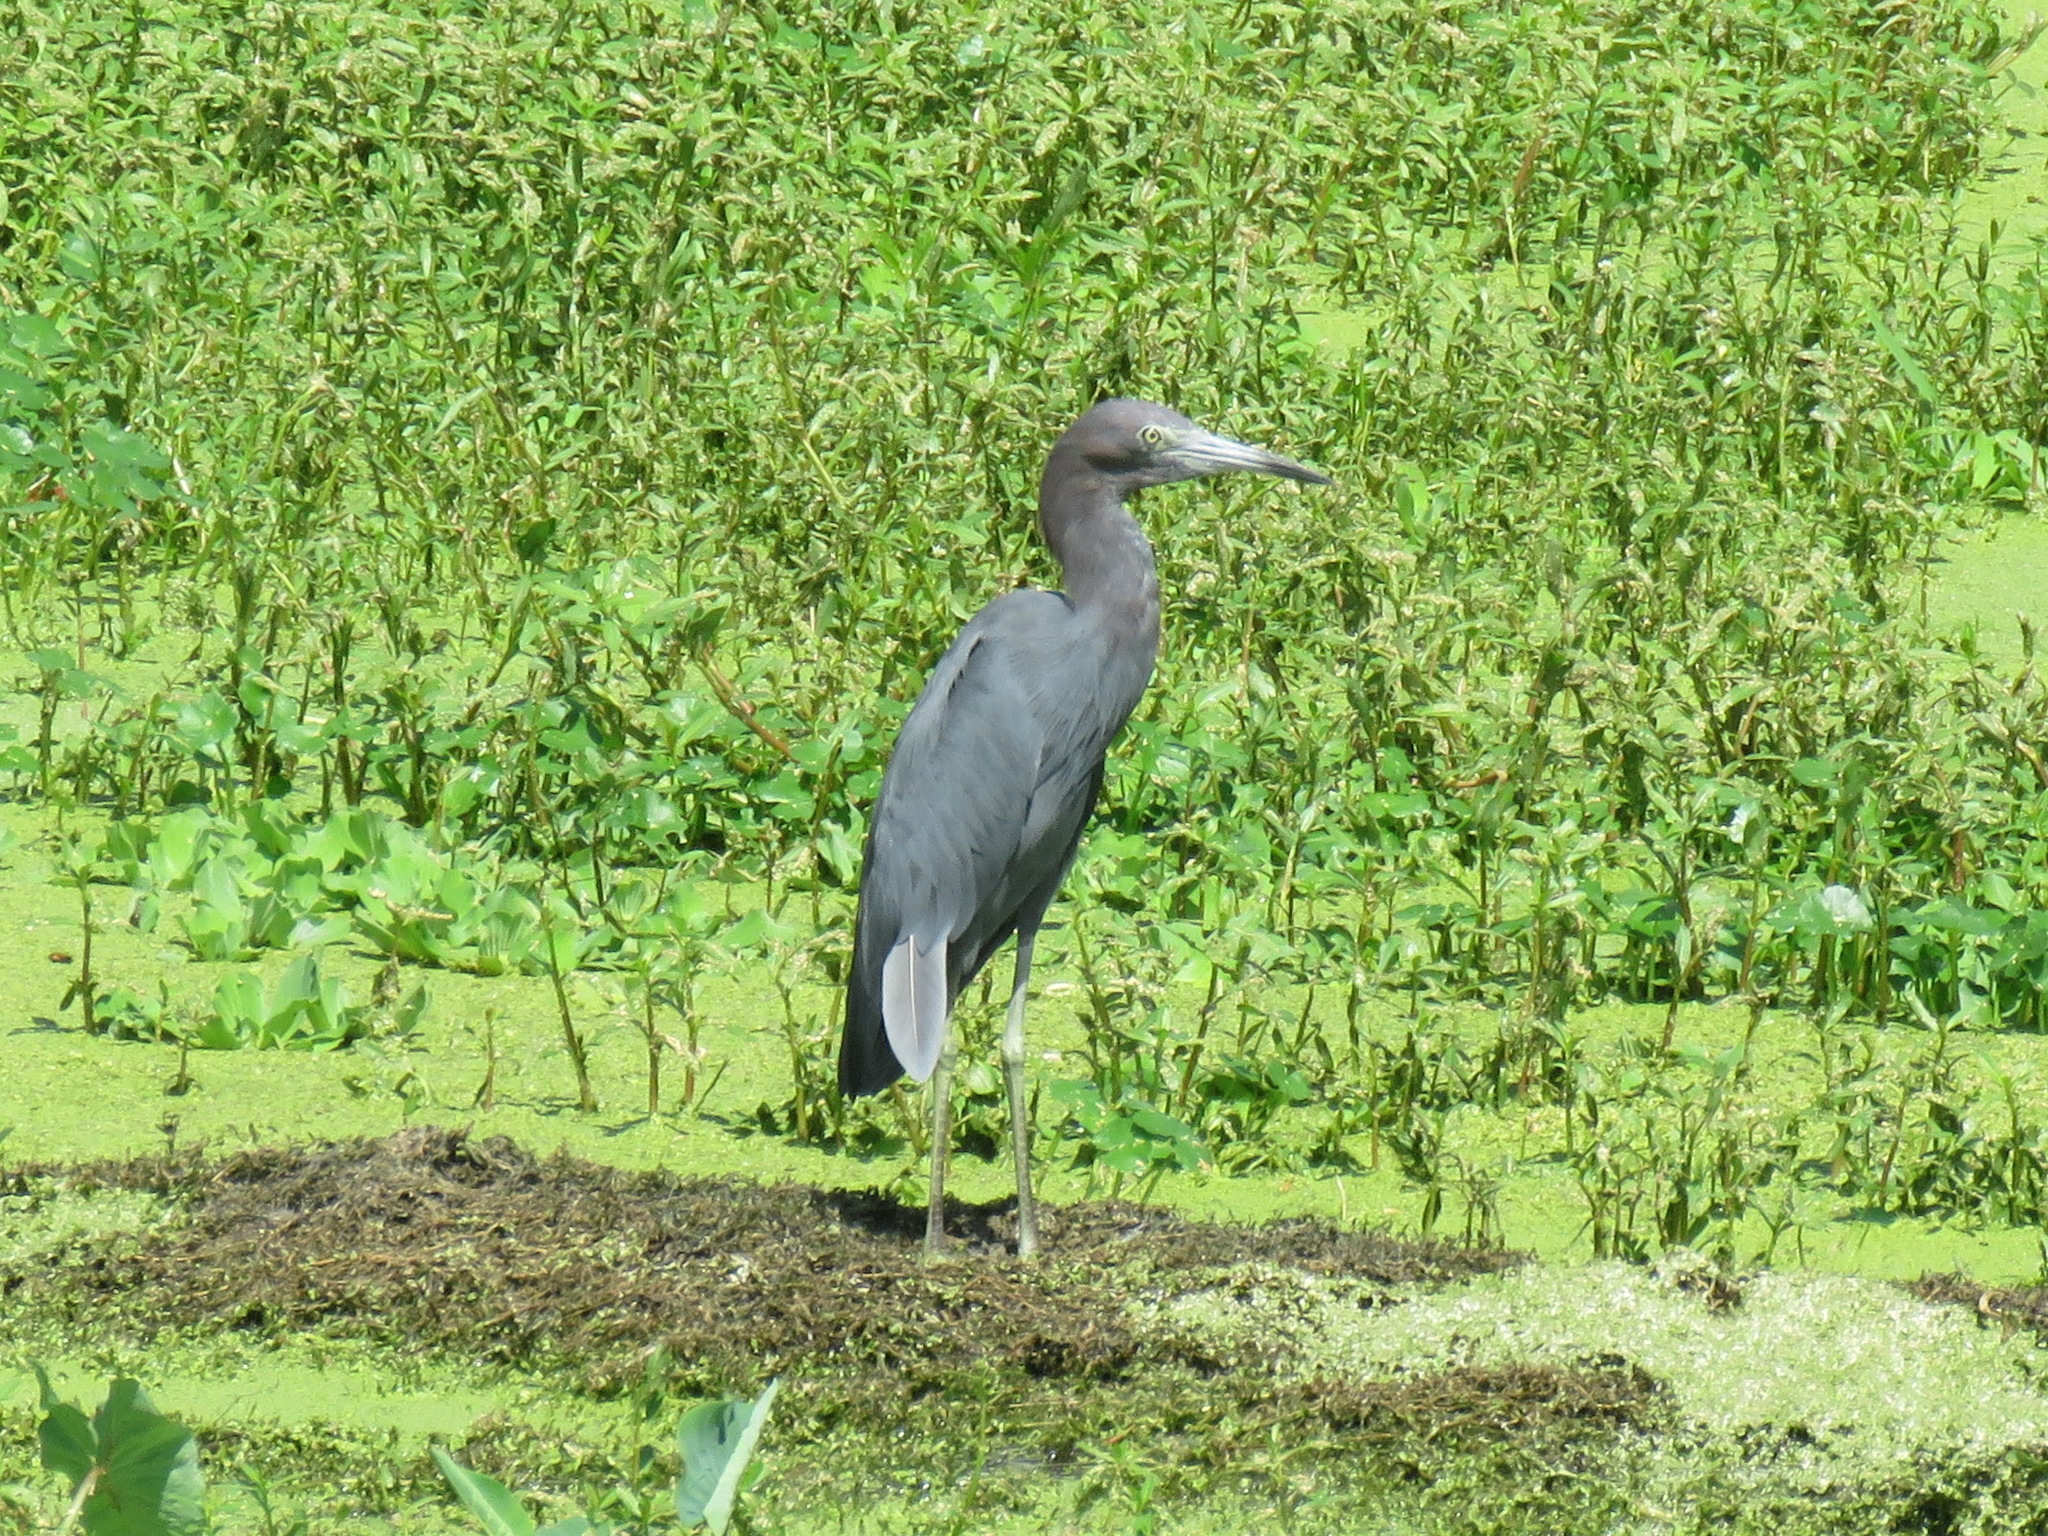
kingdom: Animalia
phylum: Chordata
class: Aves
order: Pelecaniformes
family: Ardeidae
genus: Egretta
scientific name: Egretta caerulea
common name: Little blue heron
